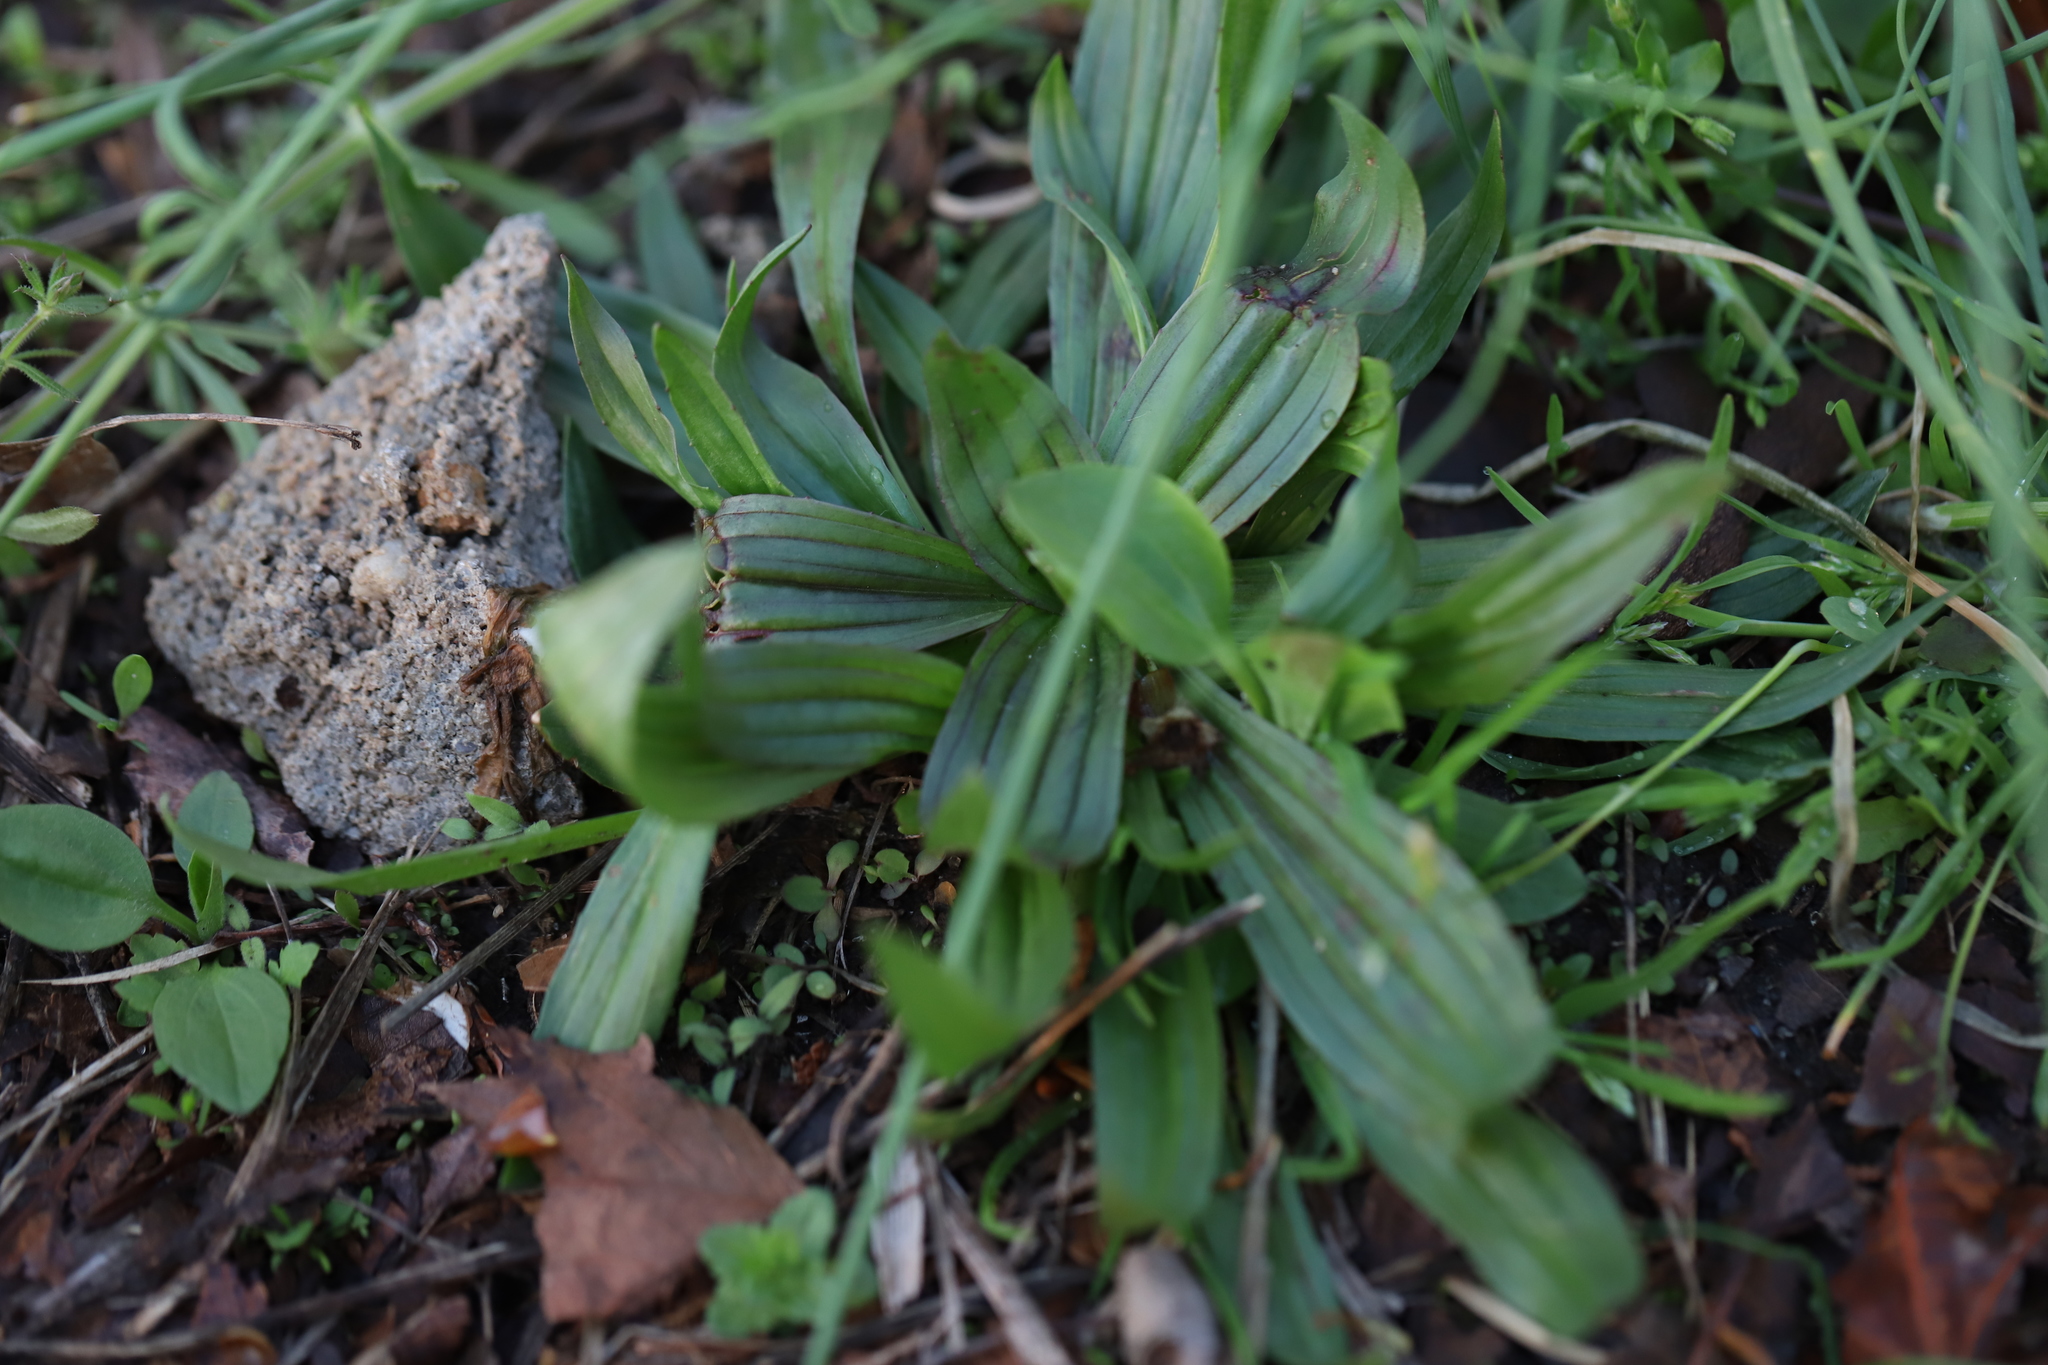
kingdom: Plantae
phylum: Tracheophyta
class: Magnoliopsida
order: Lamiales
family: Plantaginaceae
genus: Plantago
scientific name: Plantago lanceolata
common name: Ribwort plantain
